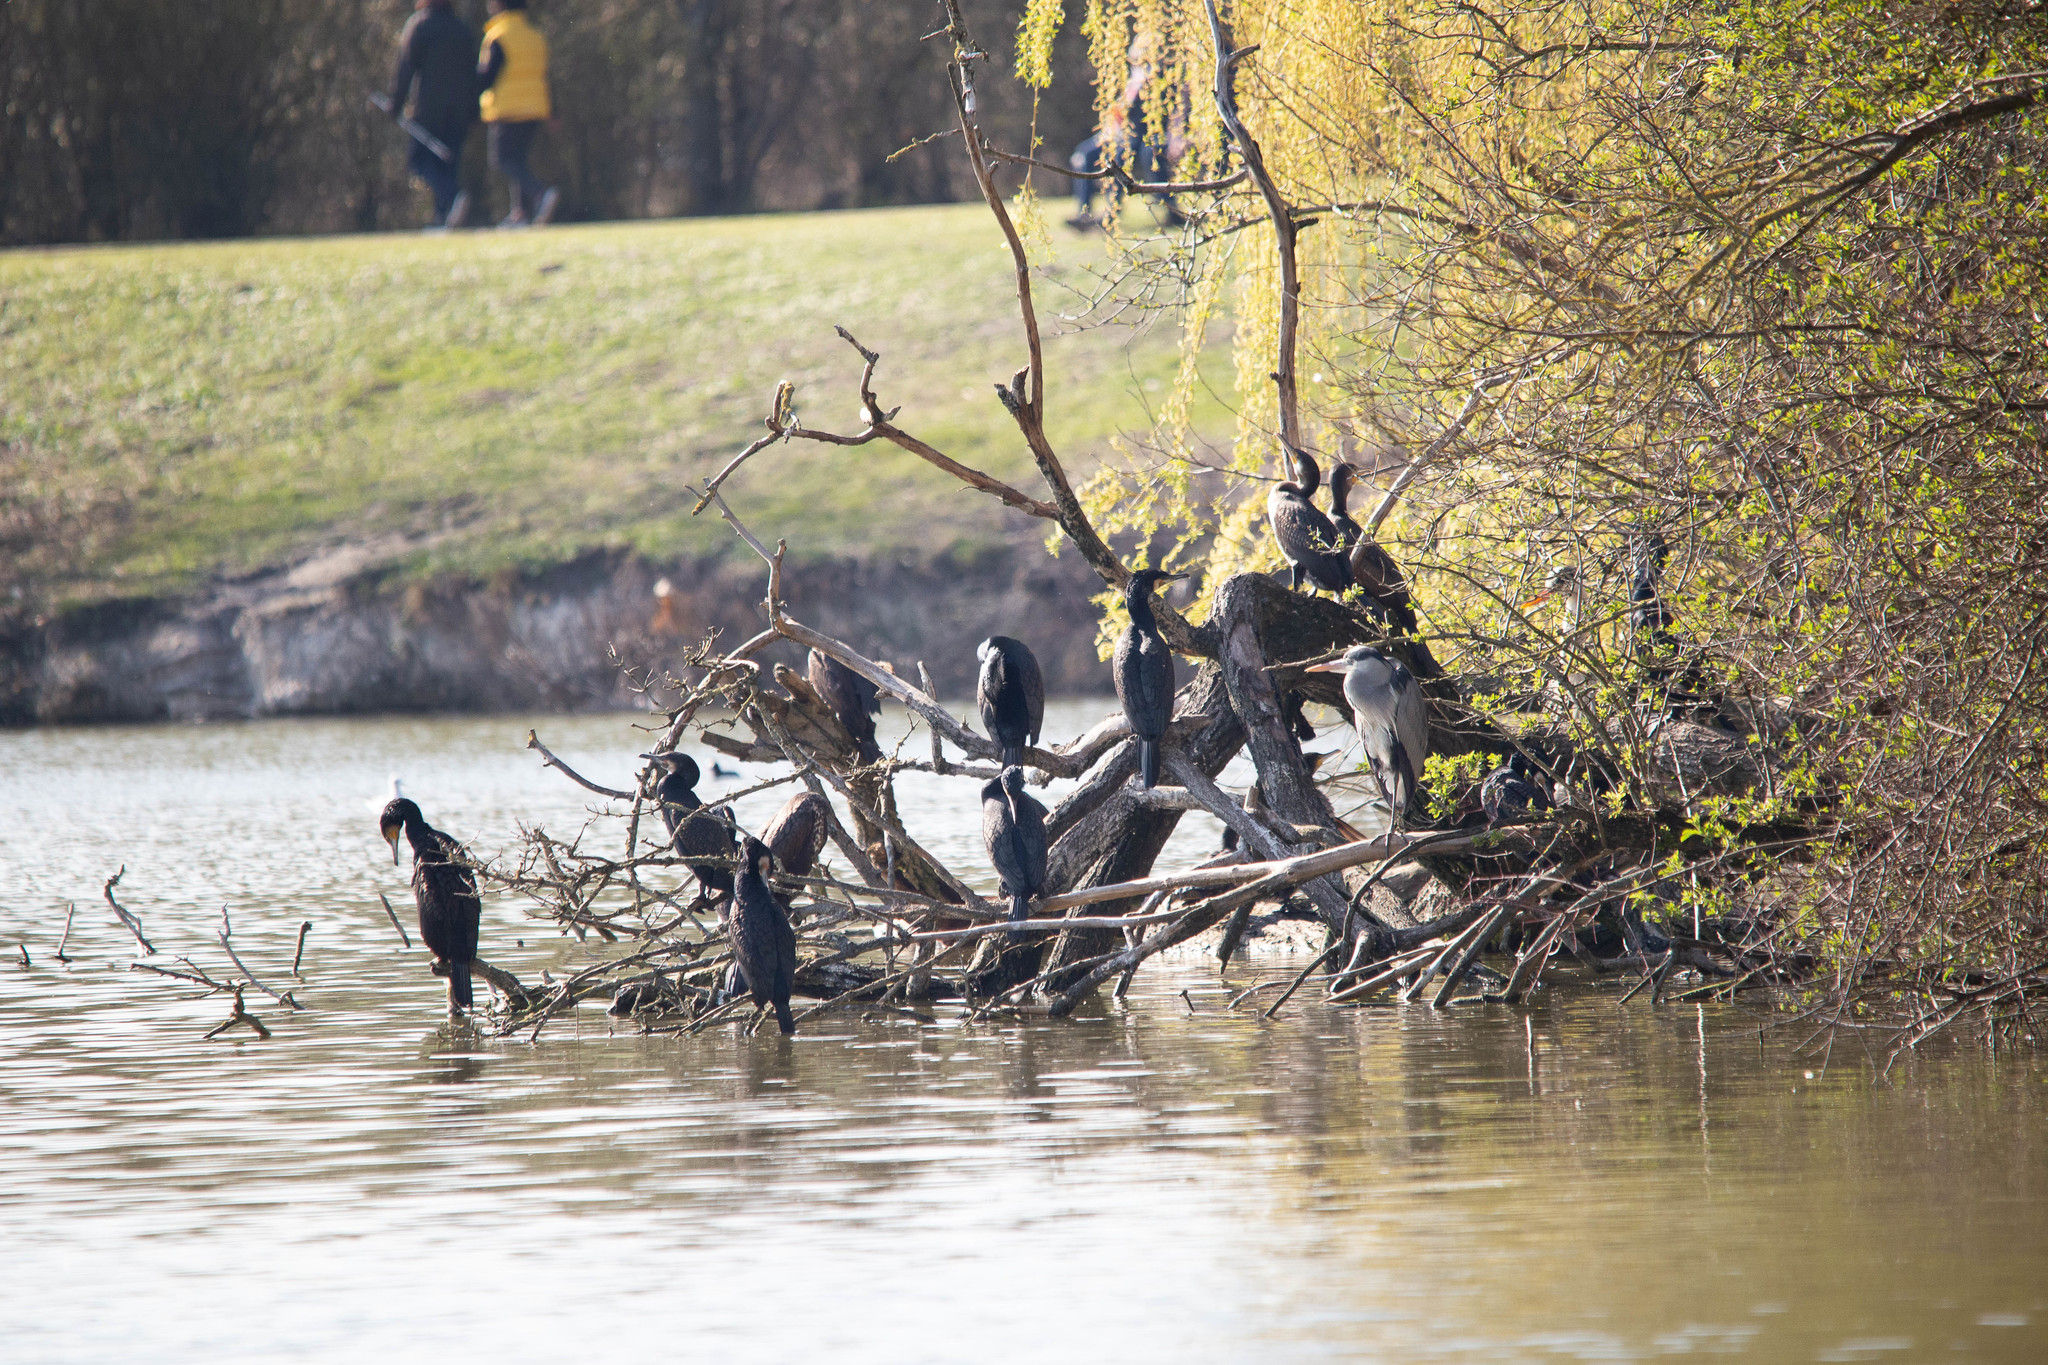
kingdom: Animalia
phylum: Chordata
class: Aves
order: Suliformes
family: Phalacrocoracidae
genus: Phalacrocorax
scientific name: Phalacrocorax carbo
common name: Great cormorant
